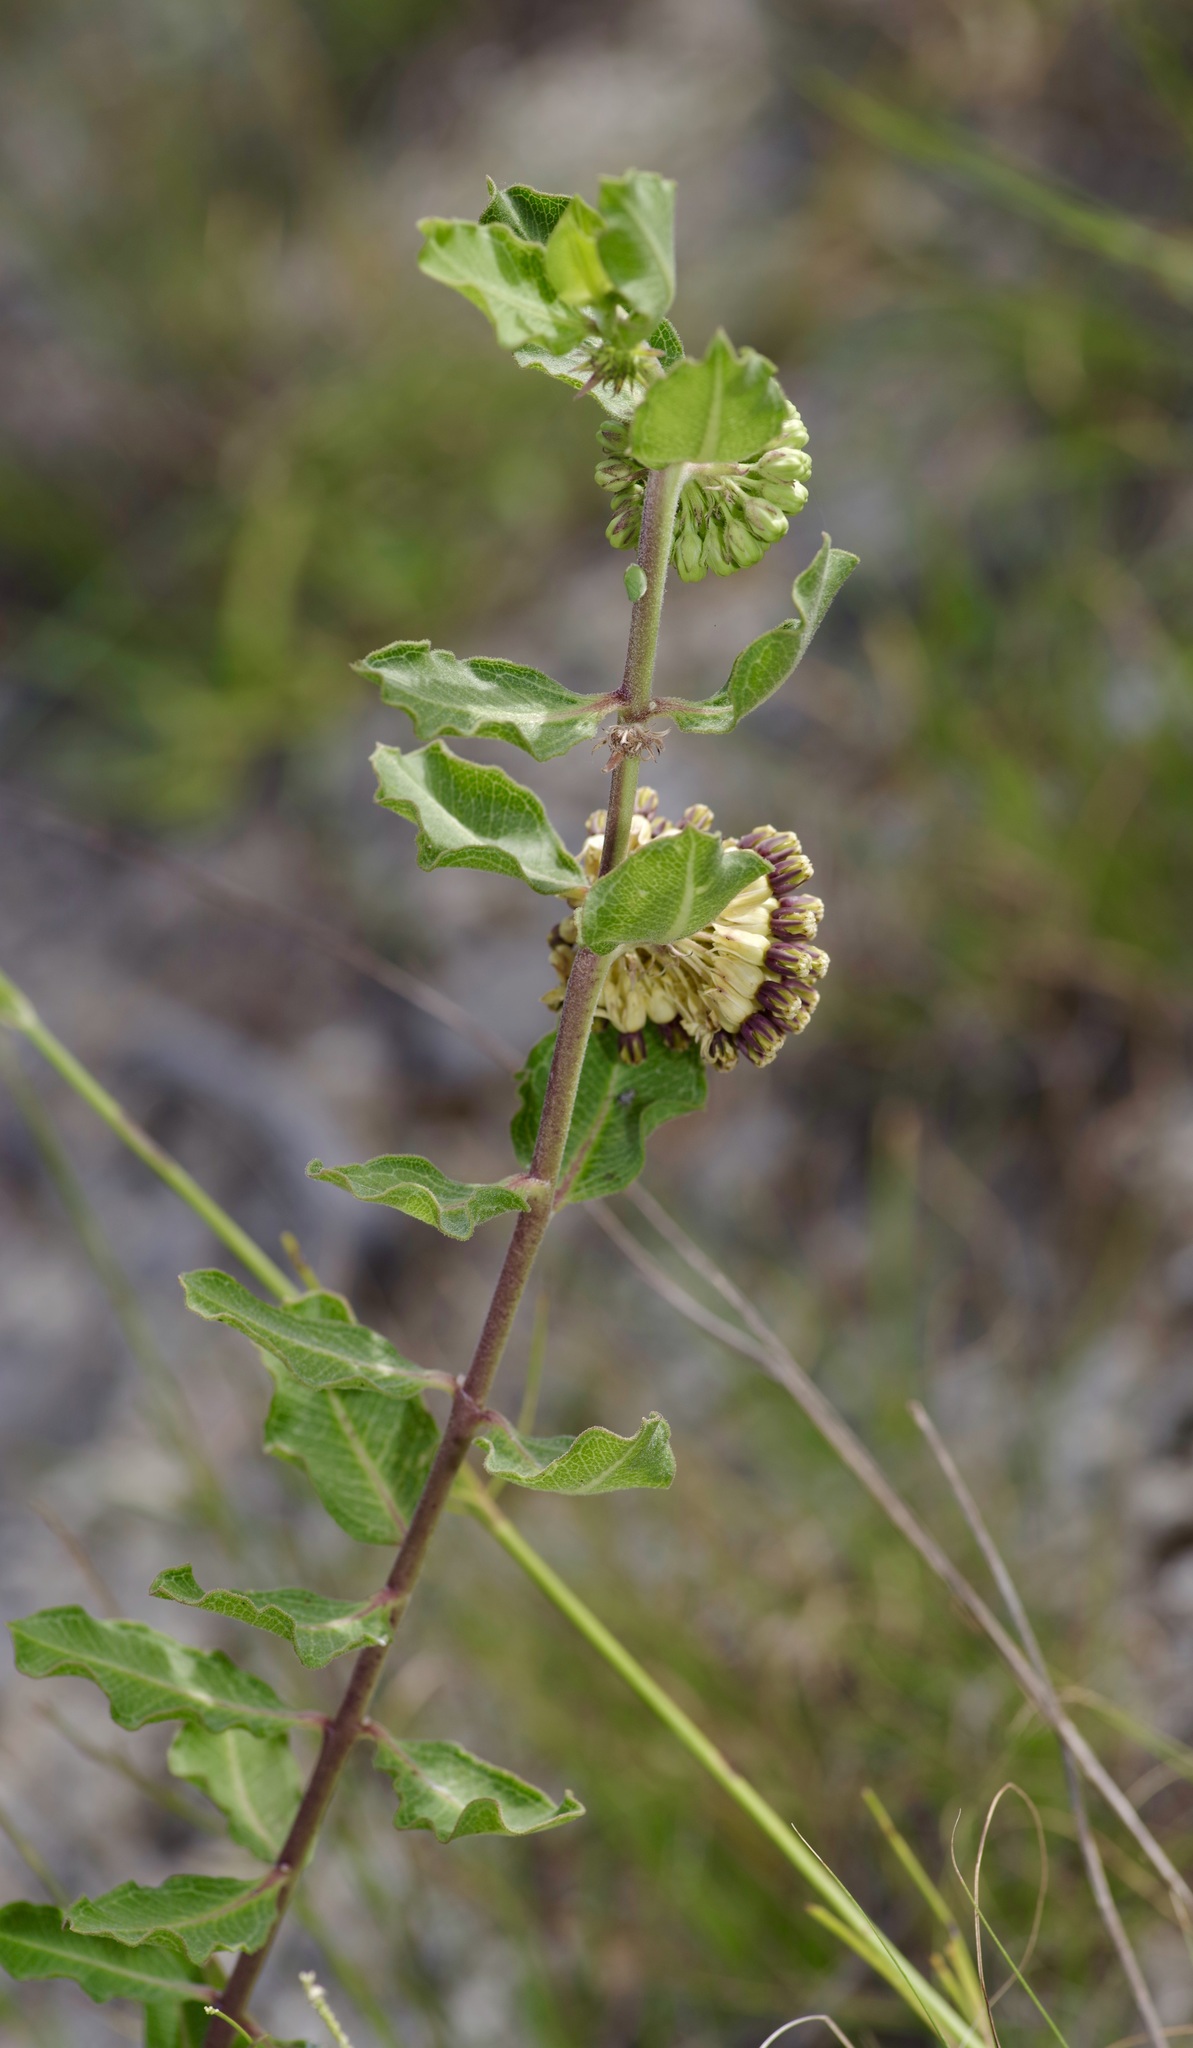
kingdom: Plantae
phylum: Tracheophyta
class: Magnoliopsida
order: Gentianales
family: Apocynaceae
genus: Asclepias
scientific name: Asclepias viridiflora
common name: Green comet milkweed
